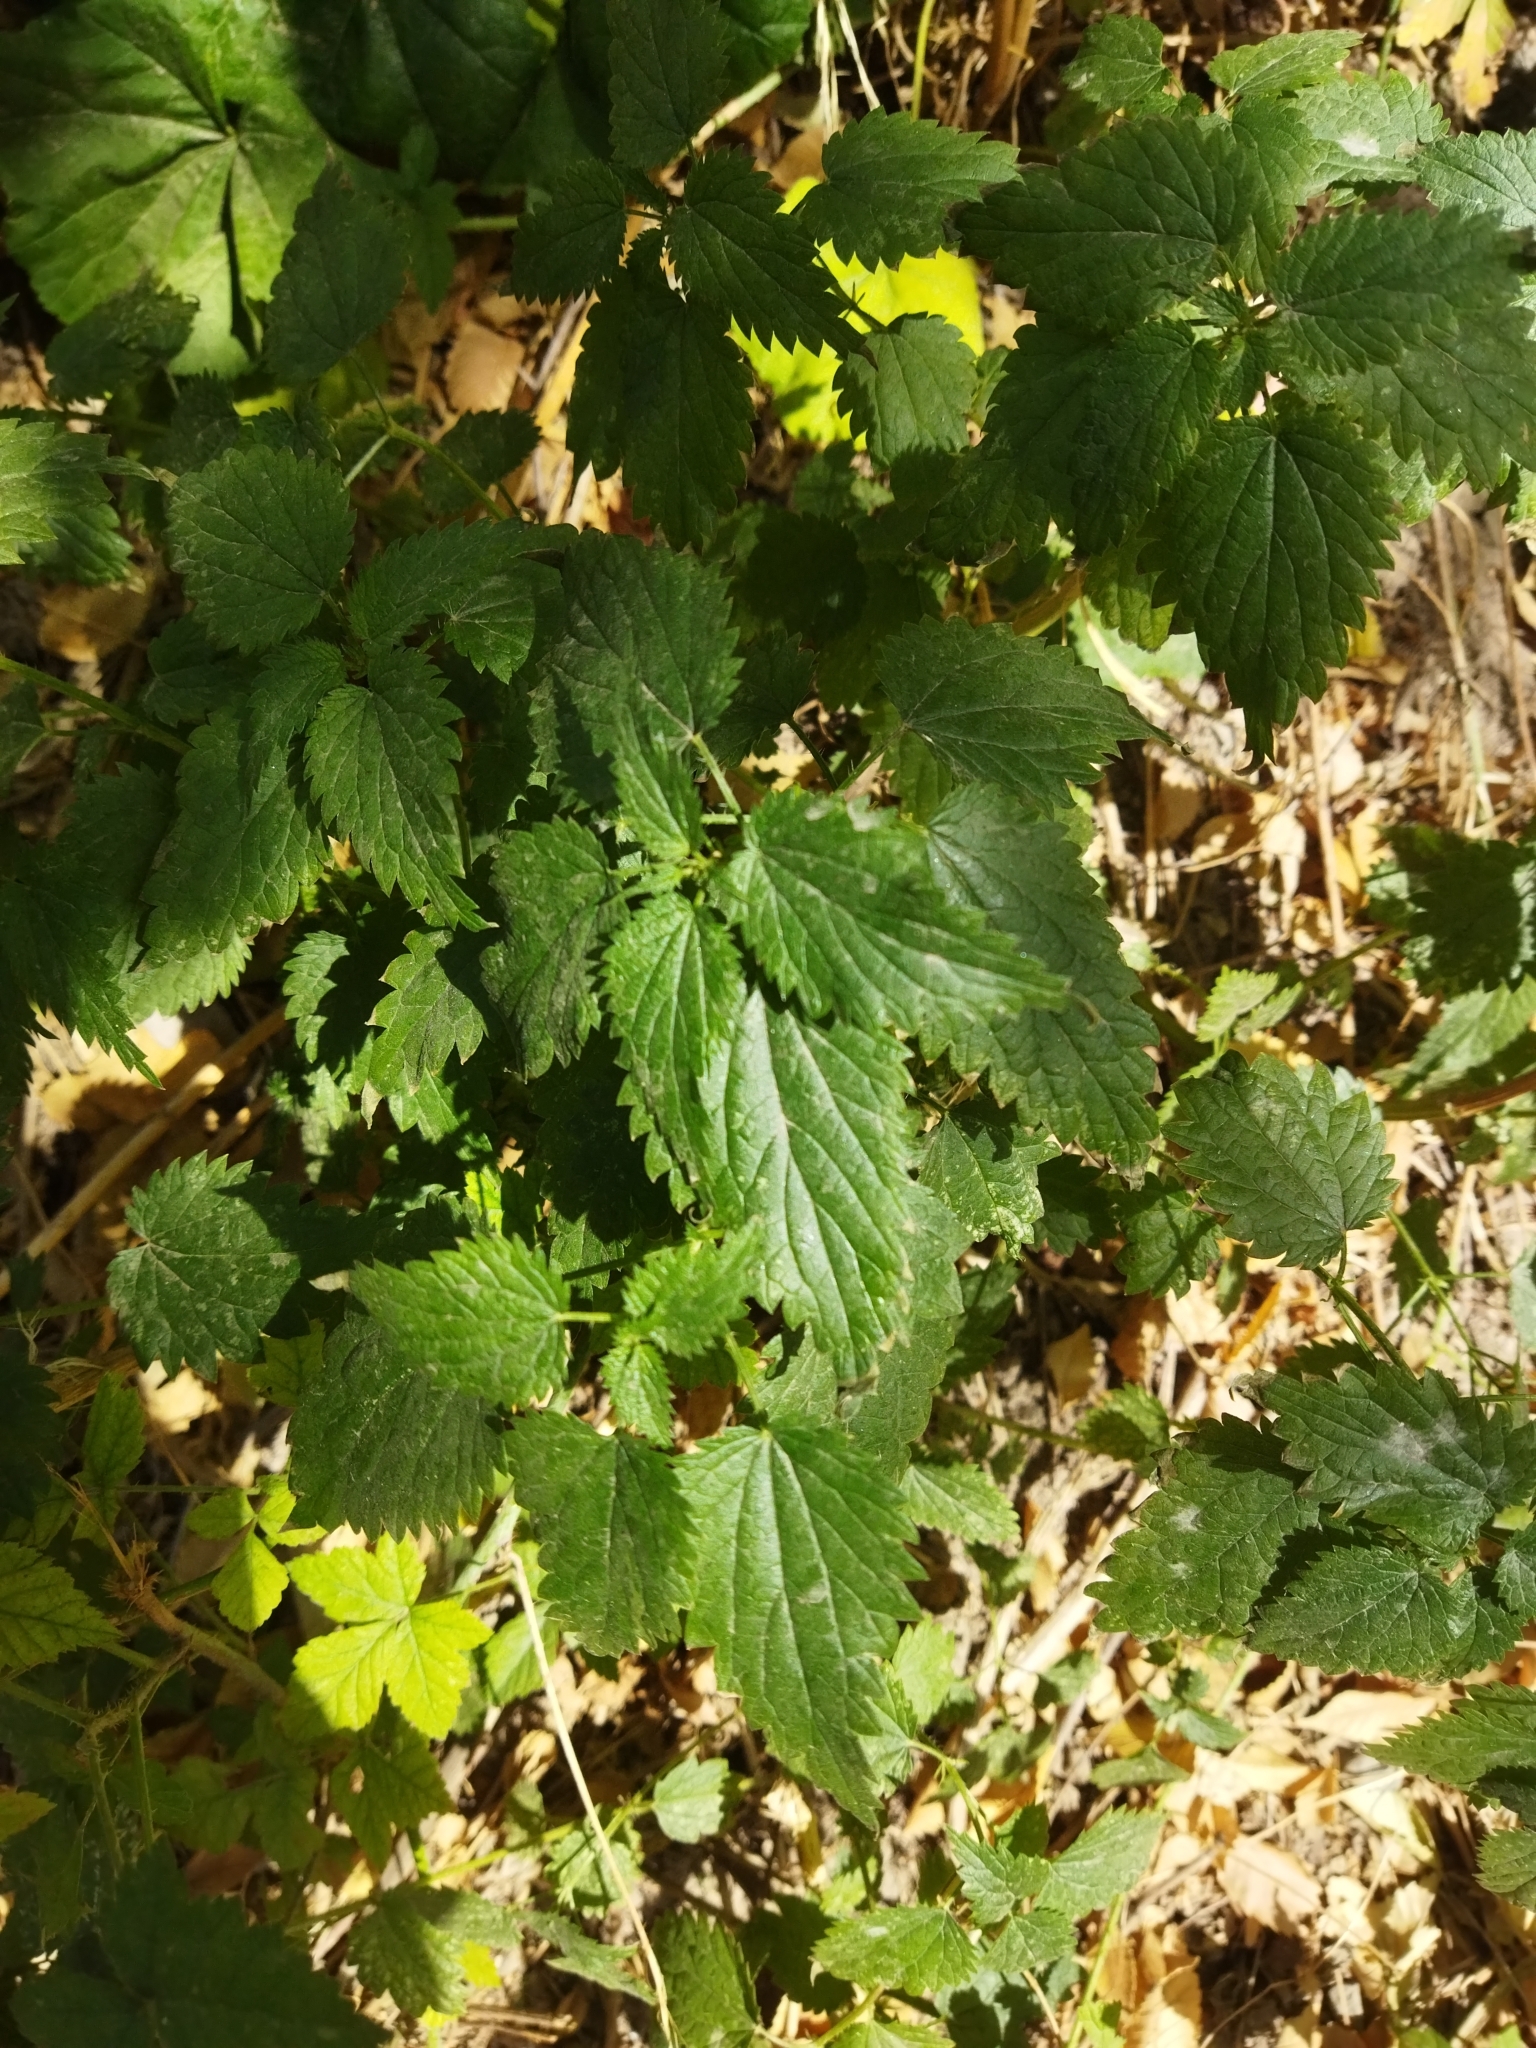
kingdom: Plantae
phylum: Tracheophyta
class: Magnoliopsida
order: Rosales
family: Urticaceae
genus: Urtica
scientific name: Urtica dioica
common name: Common nettle
